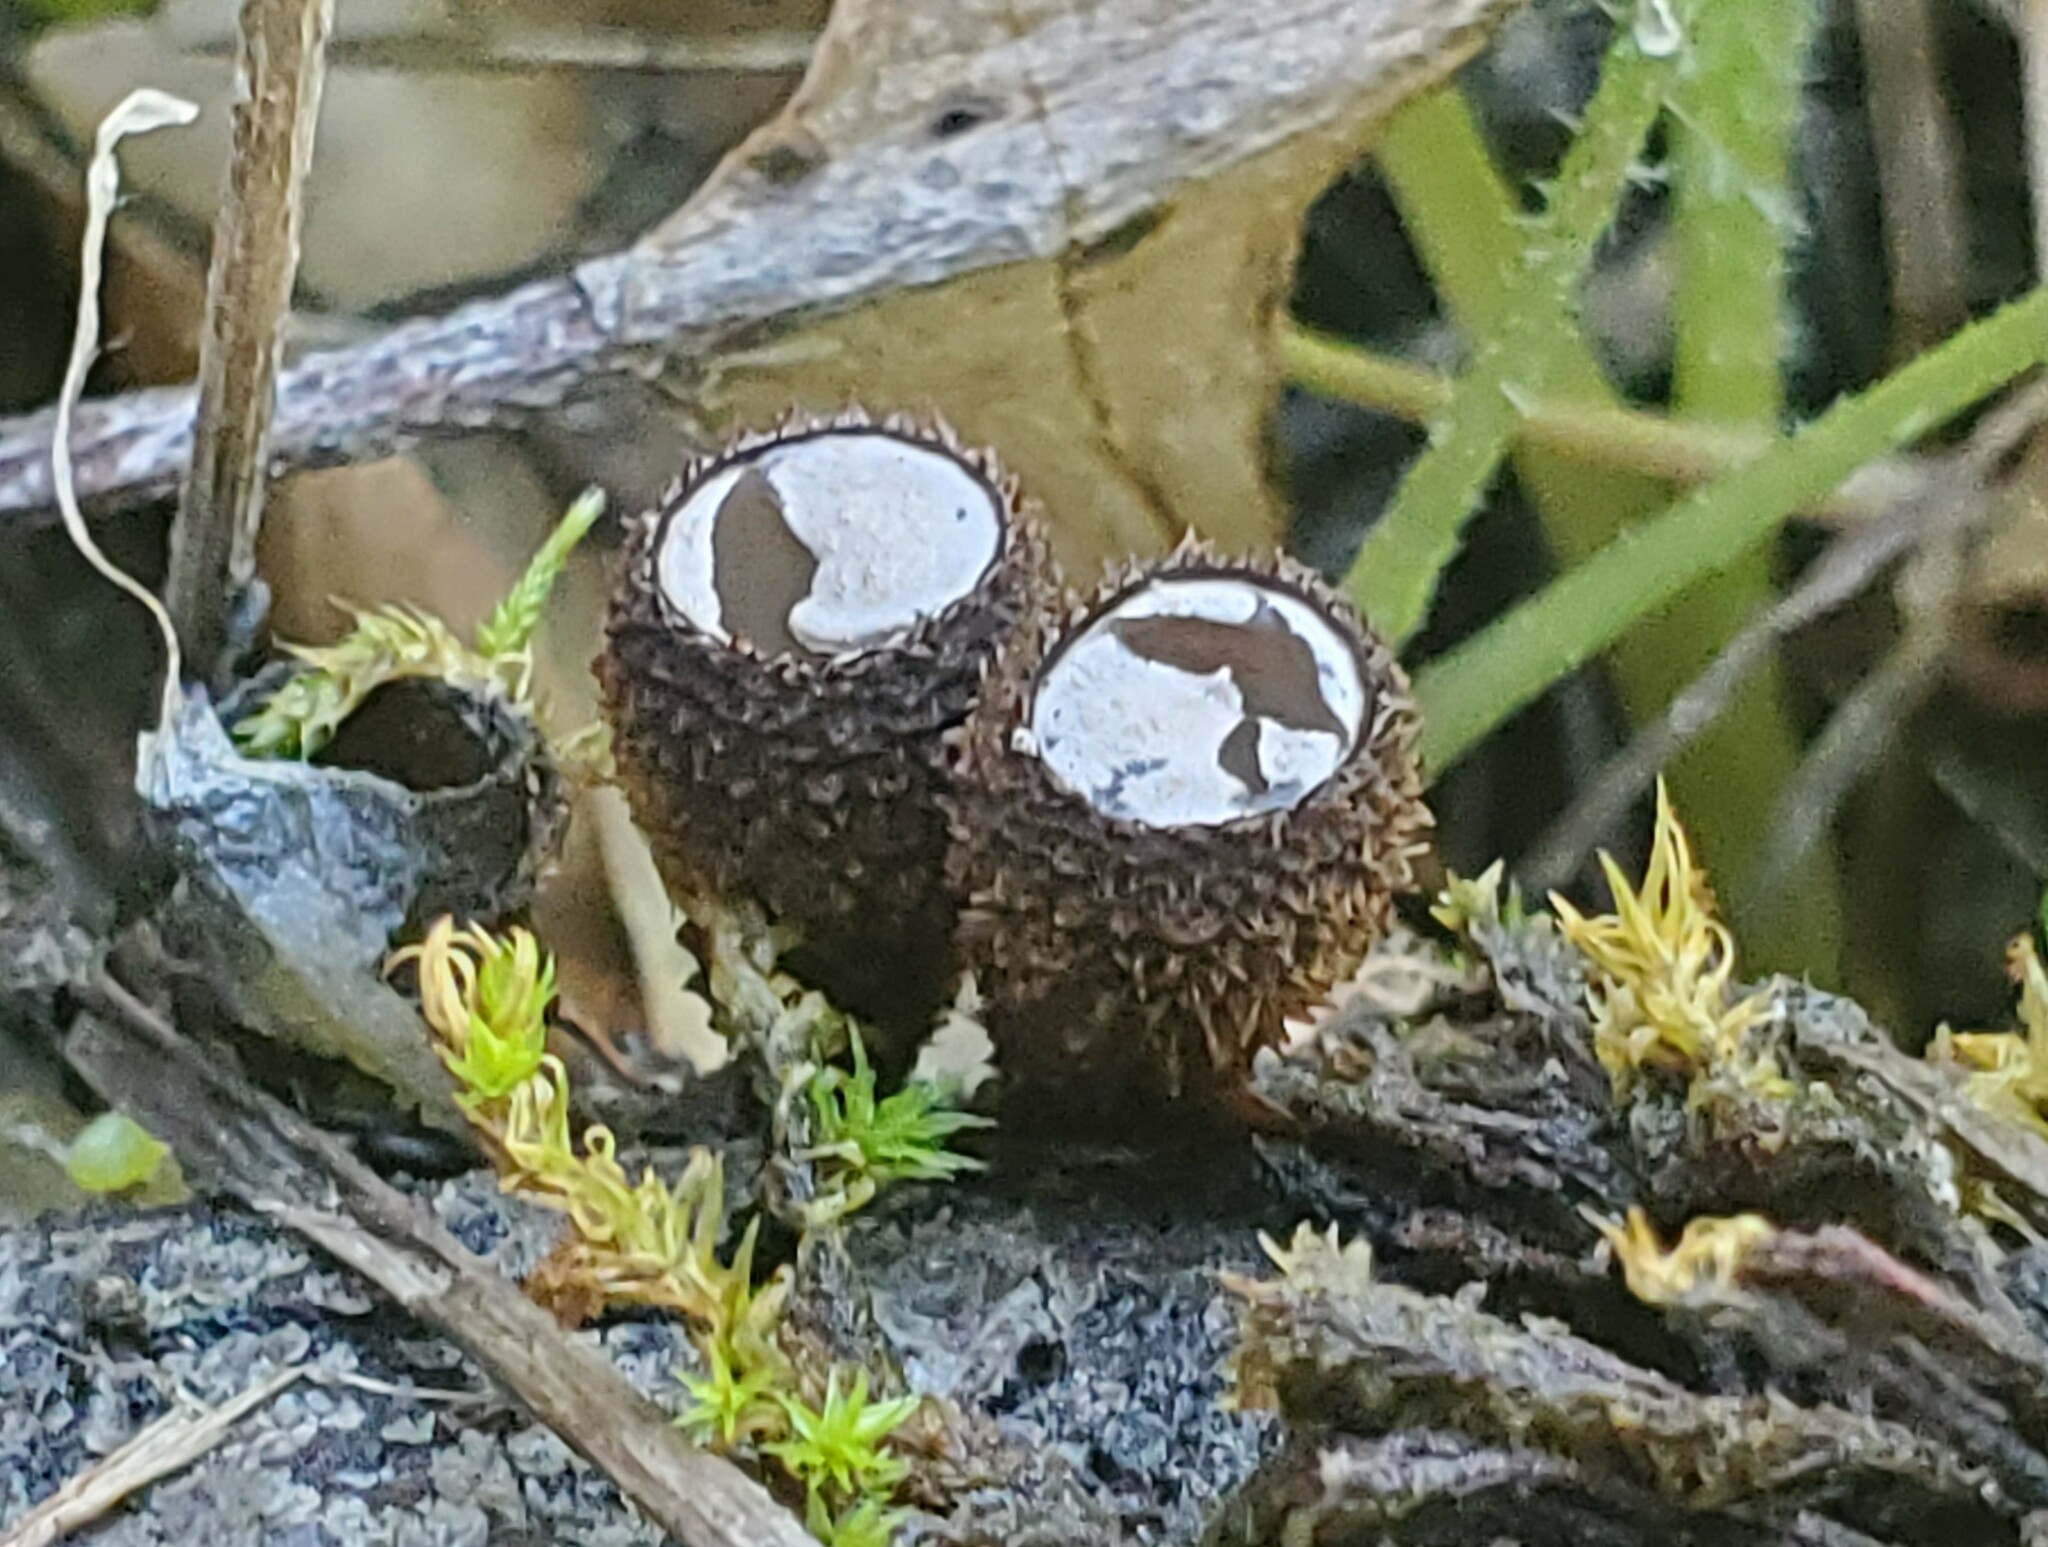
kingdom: Fungi
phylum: Basidiomycota
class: Agaricomycetes
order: Agaricales
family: Agaricaceae
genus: Cyathus
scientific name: Cyathus striatus
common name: Fluted bird's nest
